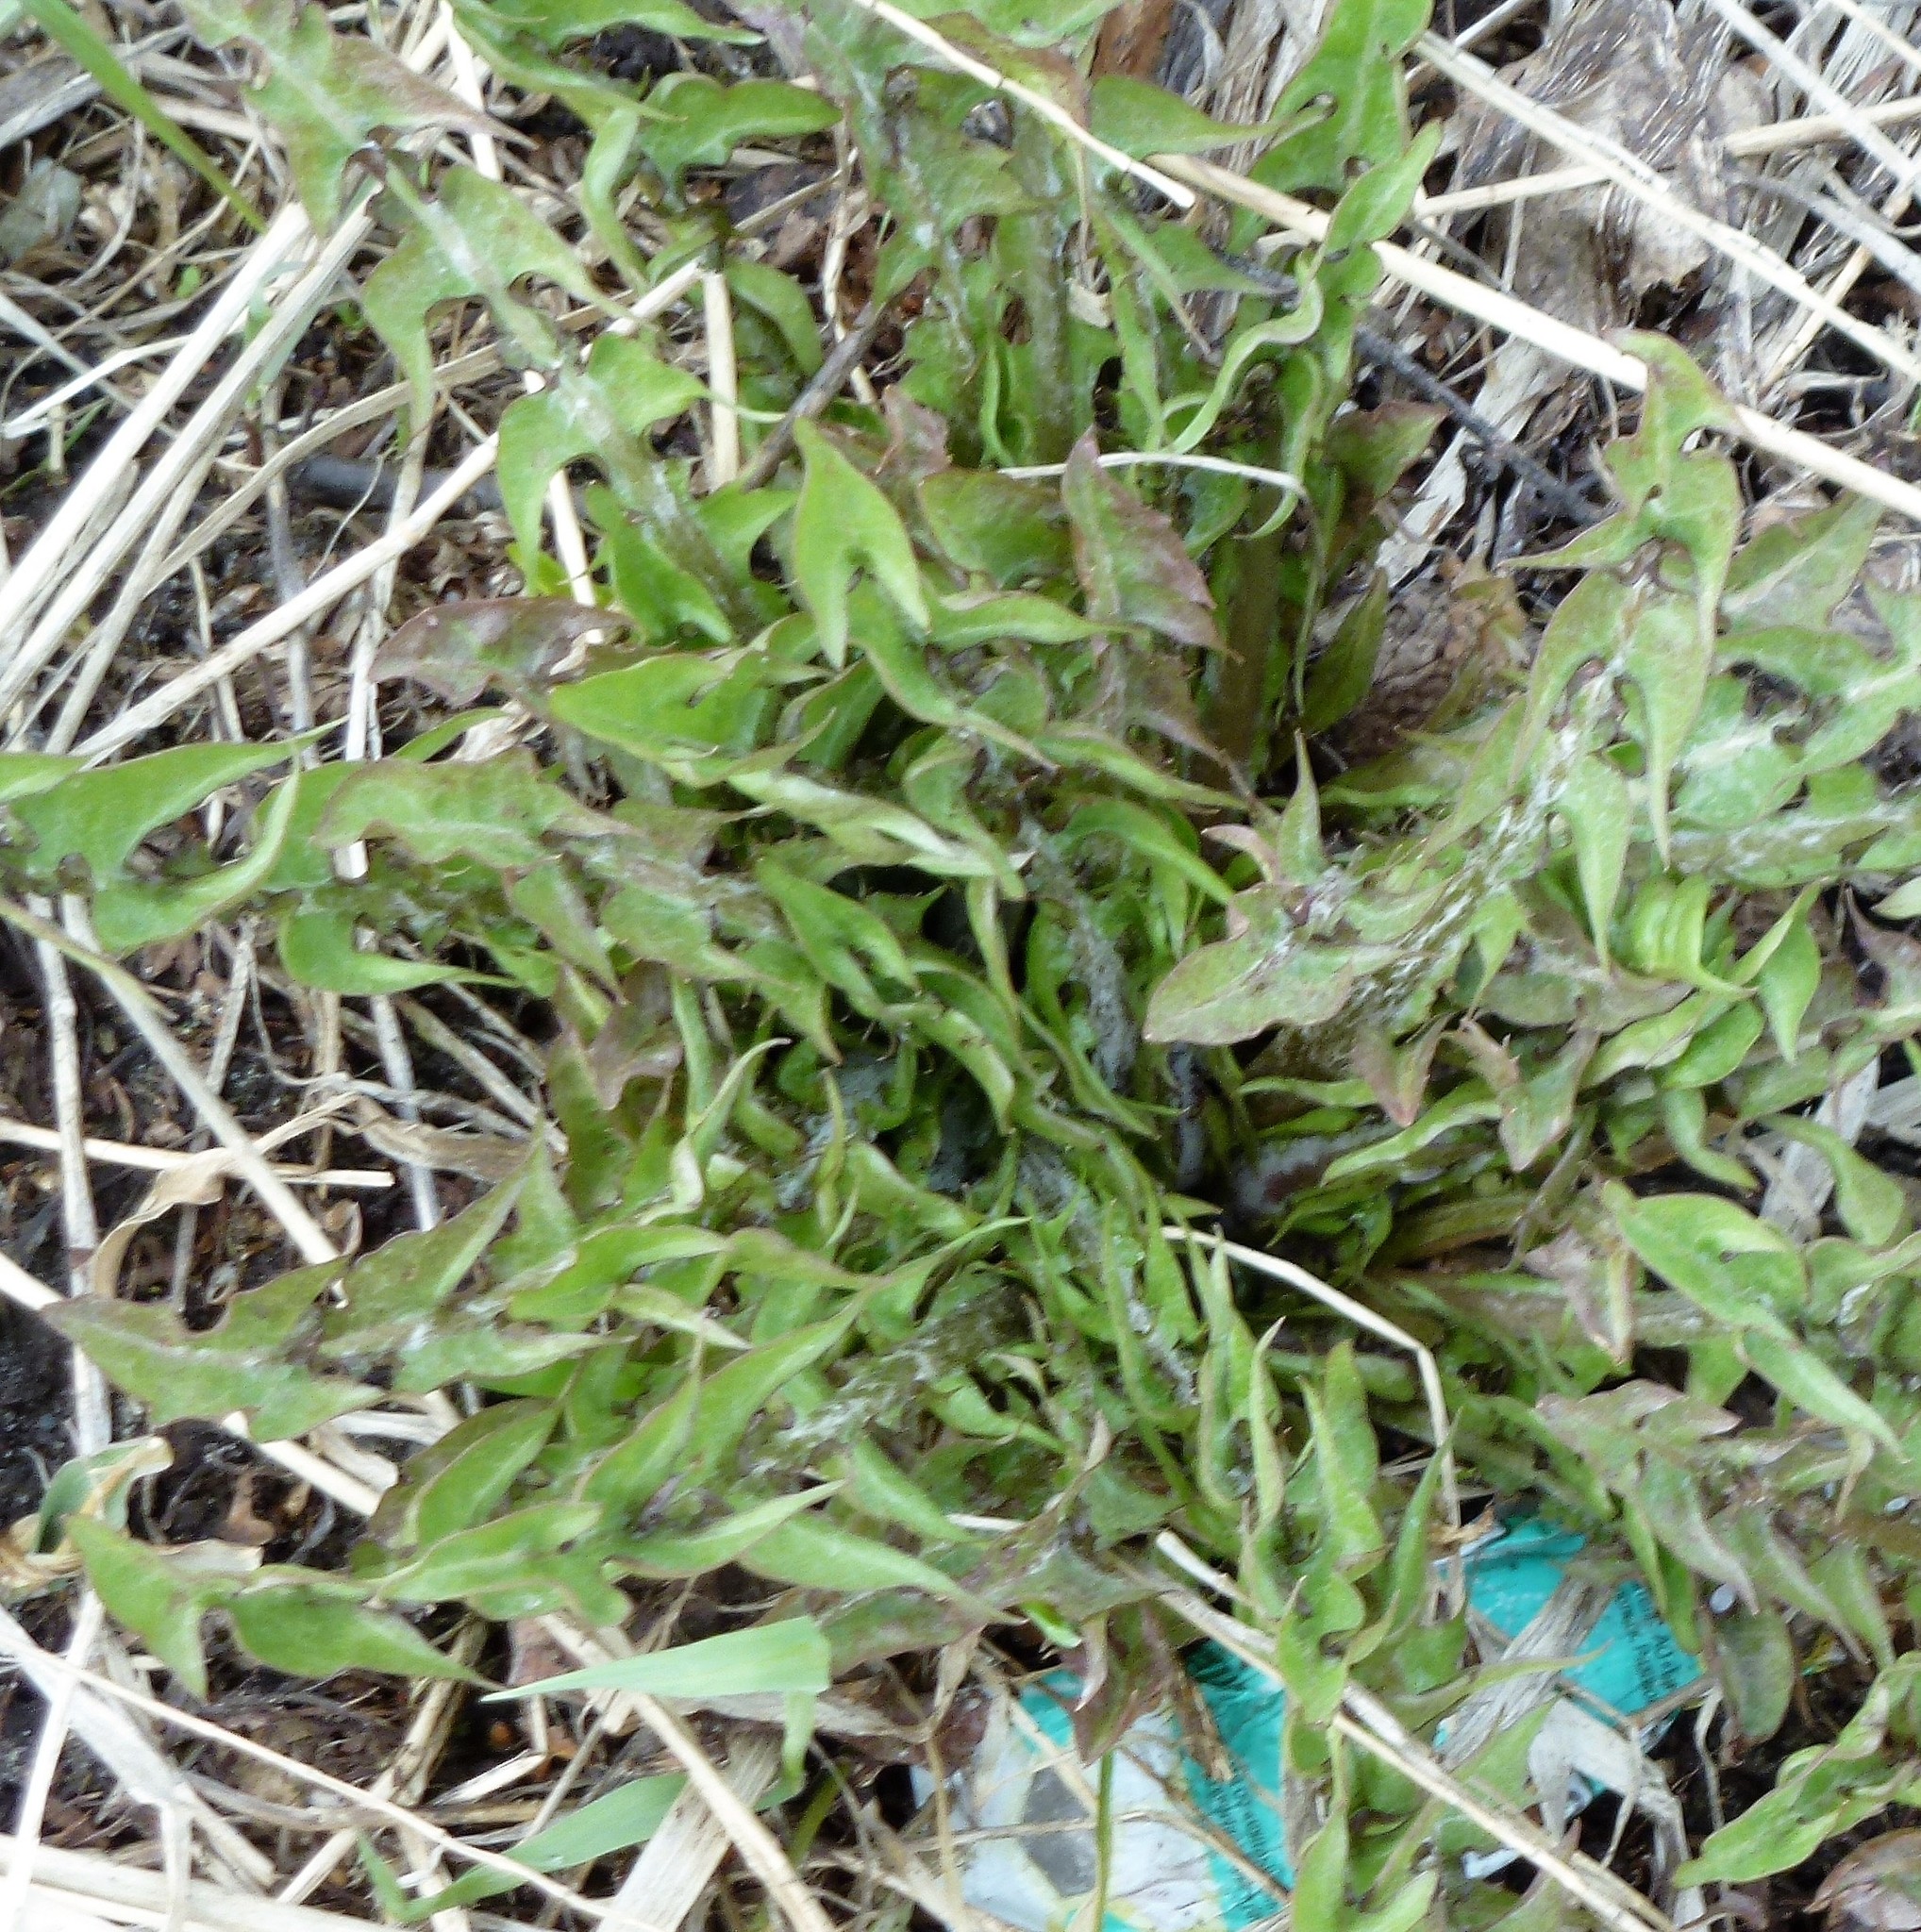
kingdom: Plantae
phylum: Tracheophyta
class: Magnoliopsida
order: Asterales
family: Asteraceae
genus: Taraxacum
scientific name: Taraxacum officinale
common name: Common dandelion
